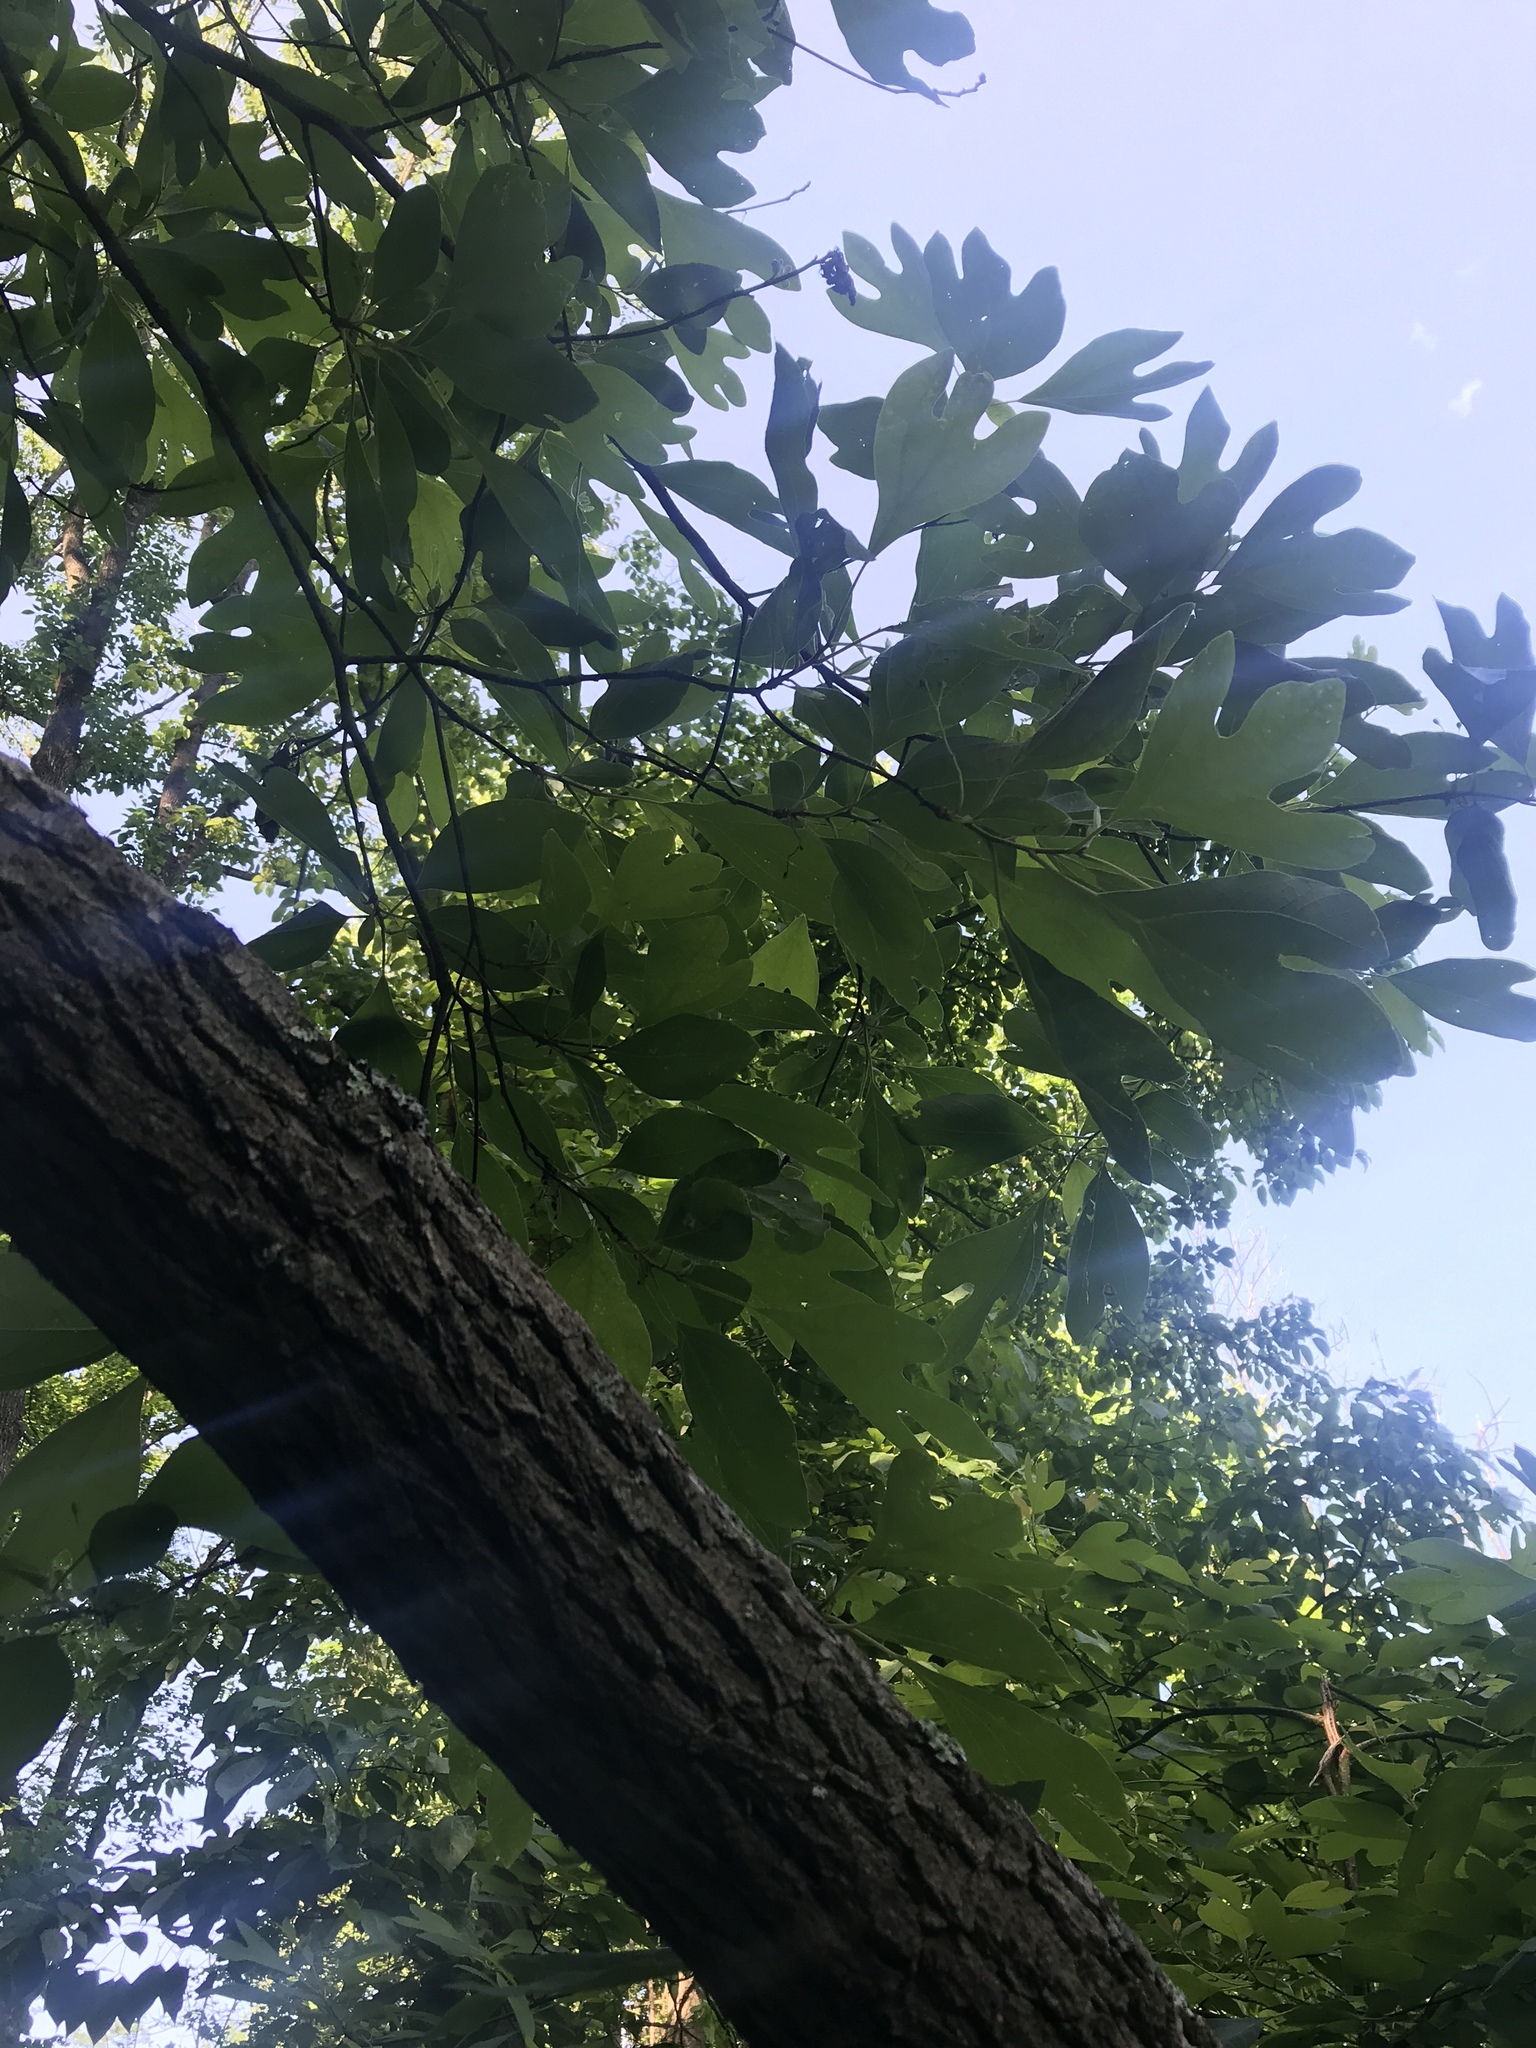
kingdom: Plantae
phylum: Tracheophyta
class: Magnoliopsida
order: Laurales
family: Lauraceae
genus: Sassafras
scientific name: Sassafras albidum
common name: Sassafras
